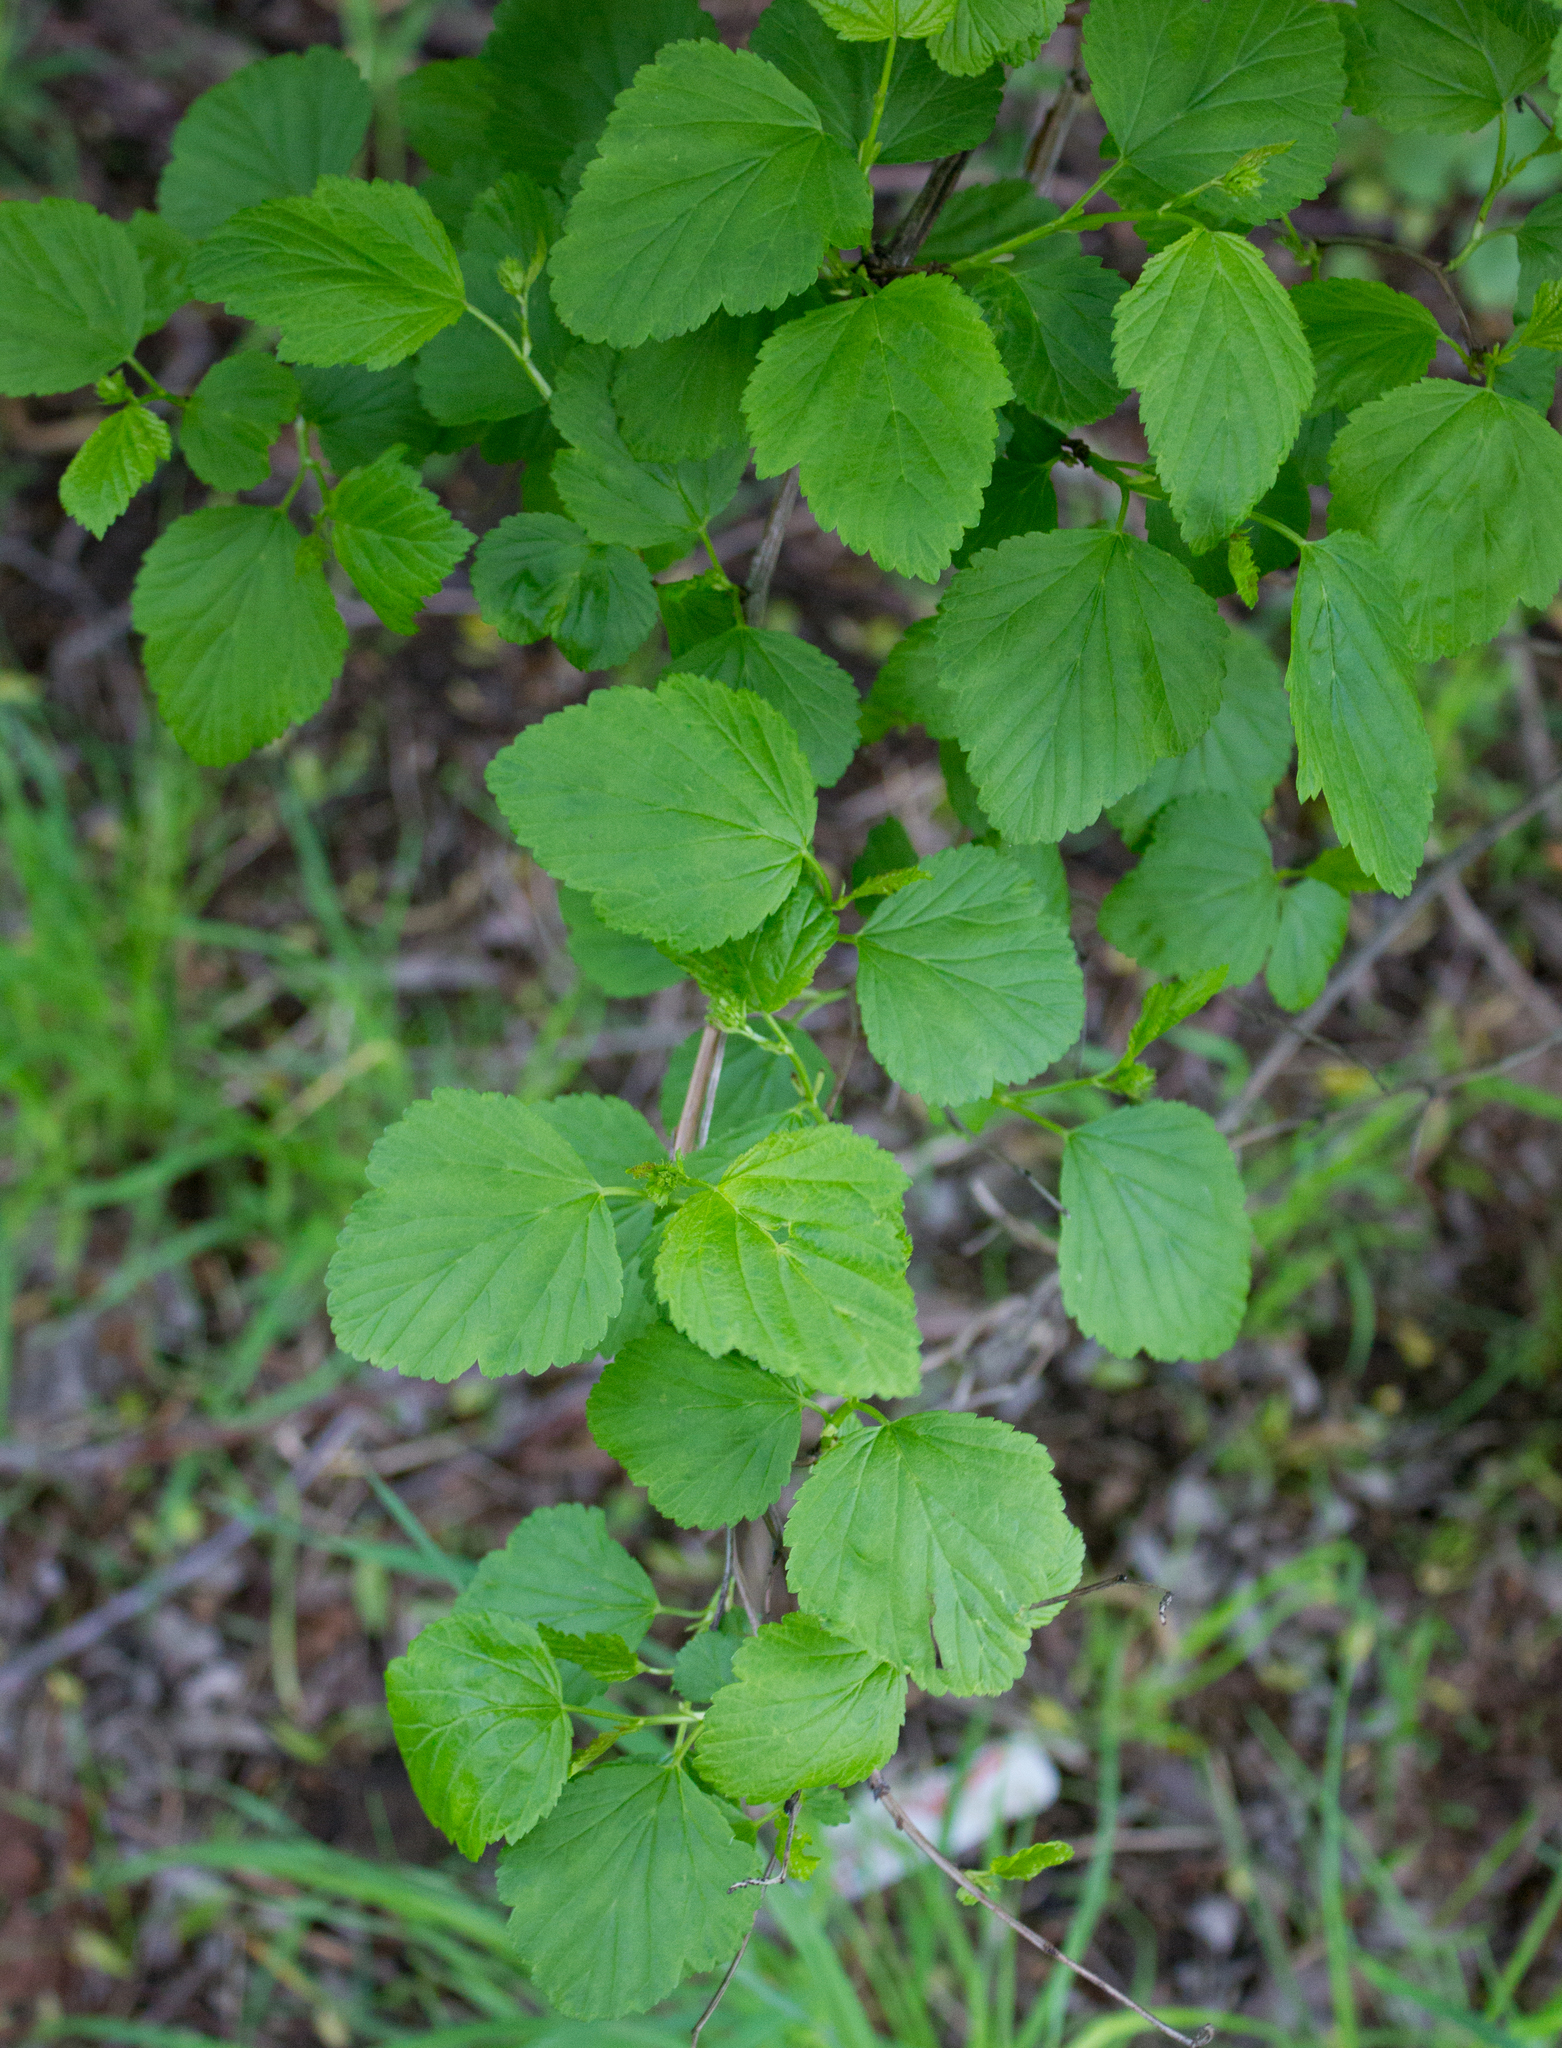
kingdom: Plantae
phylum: Tracheophyta
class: Magnoliopsida
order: Rosales
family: Rosaceae
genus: Physocarpus
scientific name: Physocarpus opulifolius
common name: Ninebark
